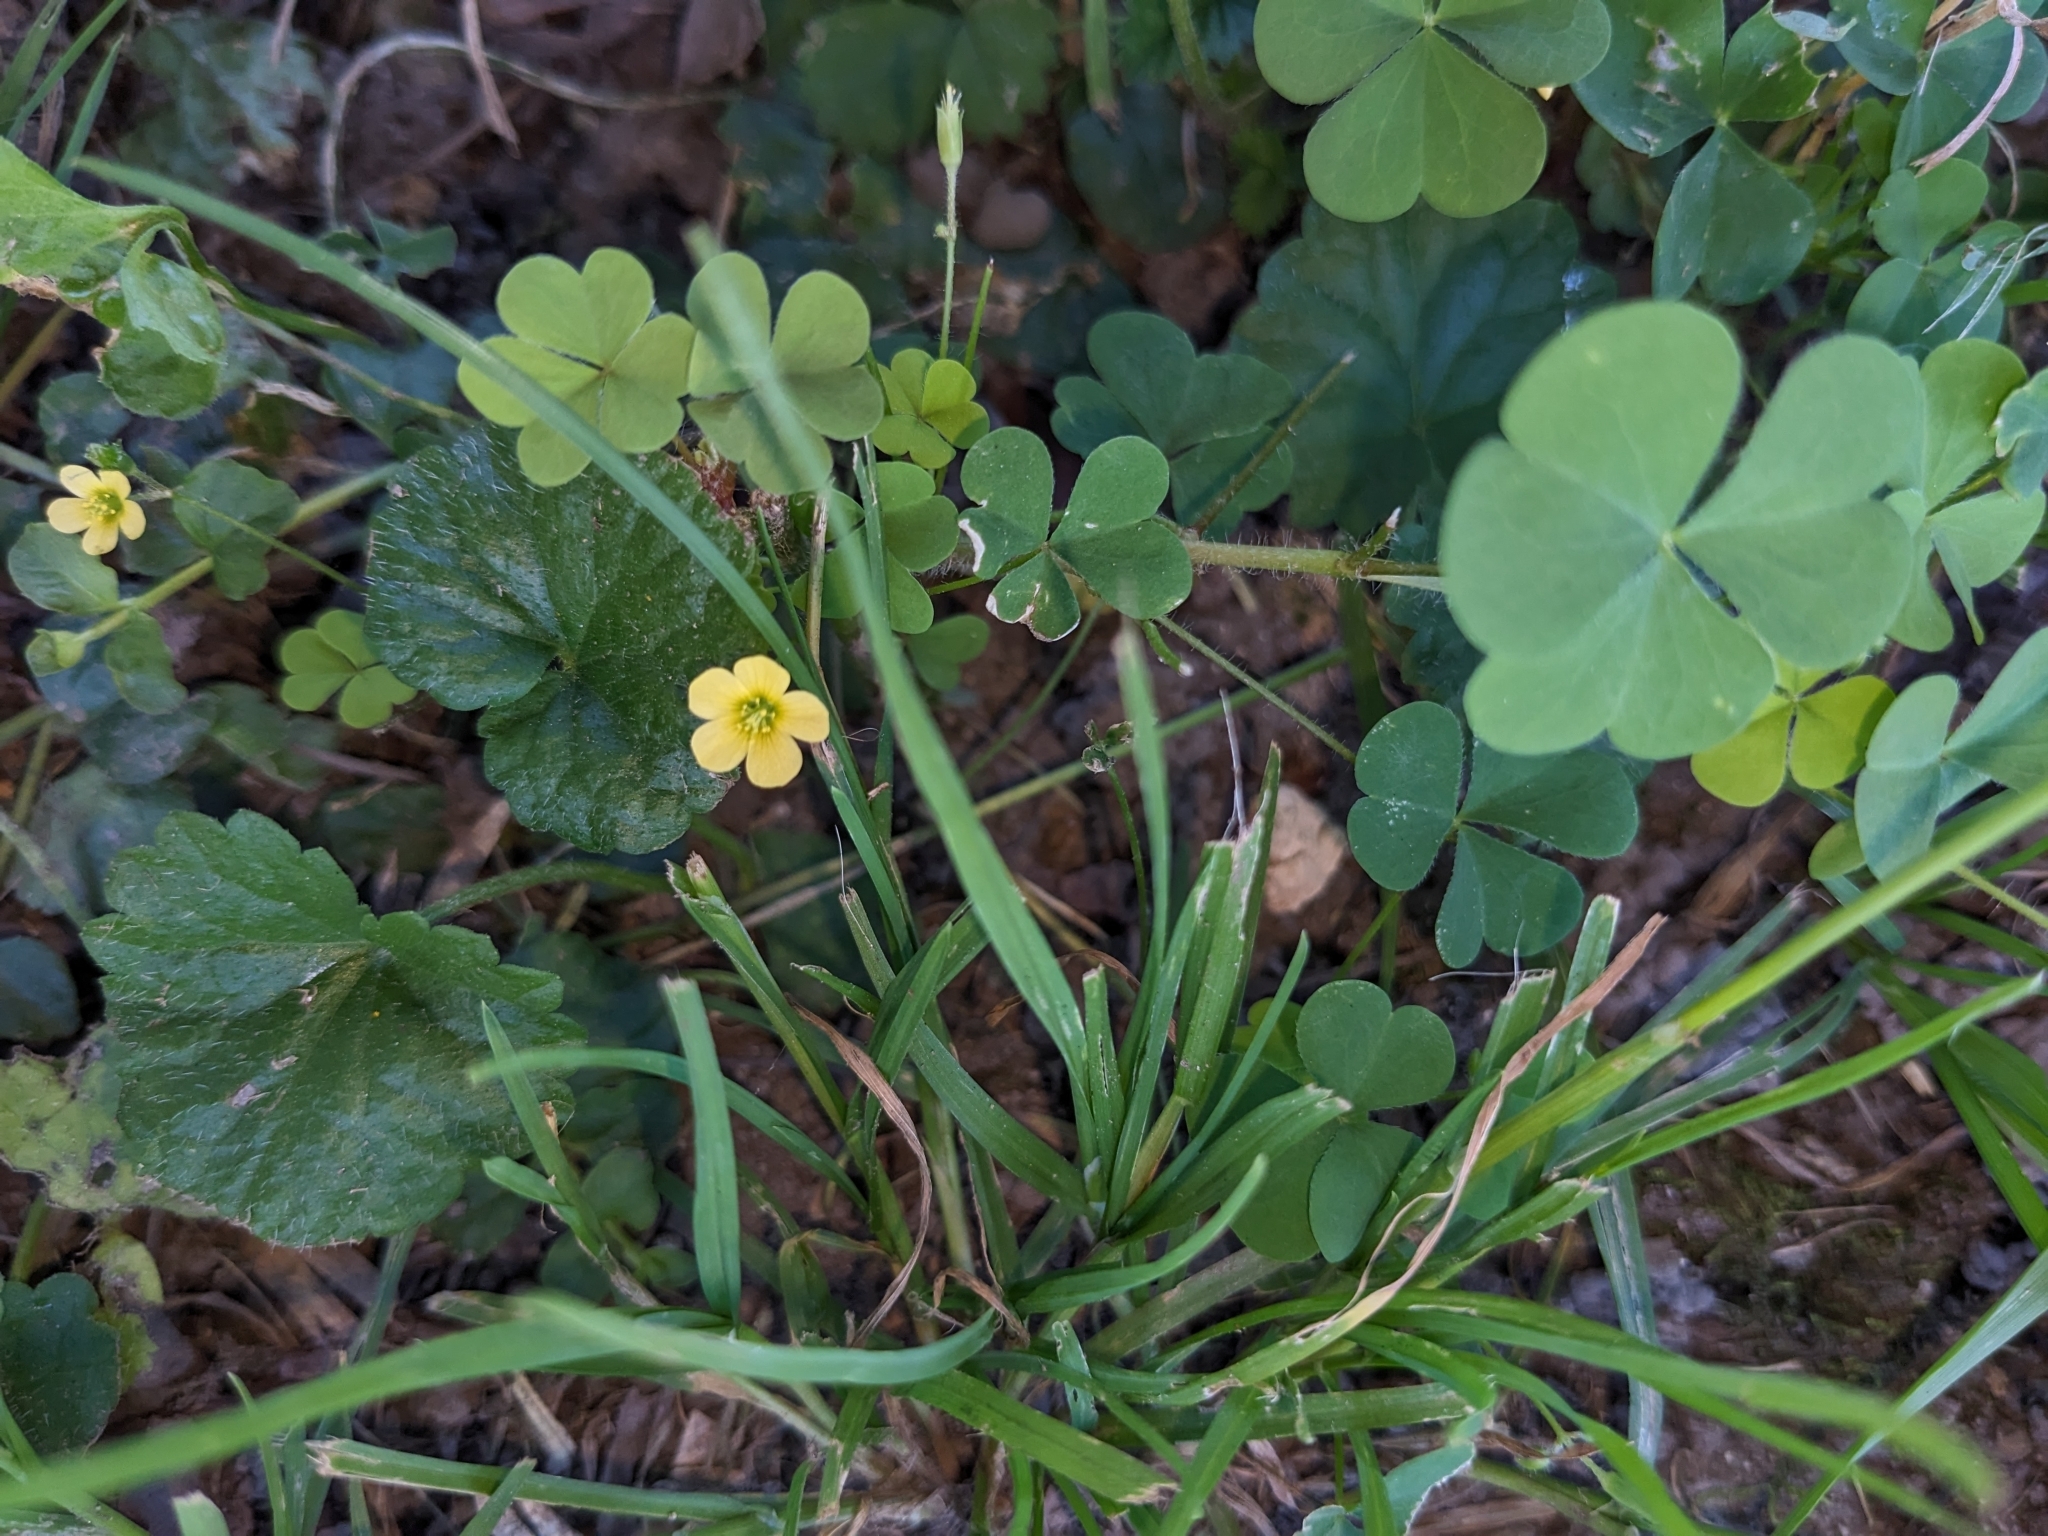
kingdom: Plantae
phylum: Tracheophyta
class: Magnoliopsida
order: Oxalidales
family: Oxalidaceae
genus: Oxalis
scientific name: Oxalis stricta
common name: Upright yellow-sorrel
